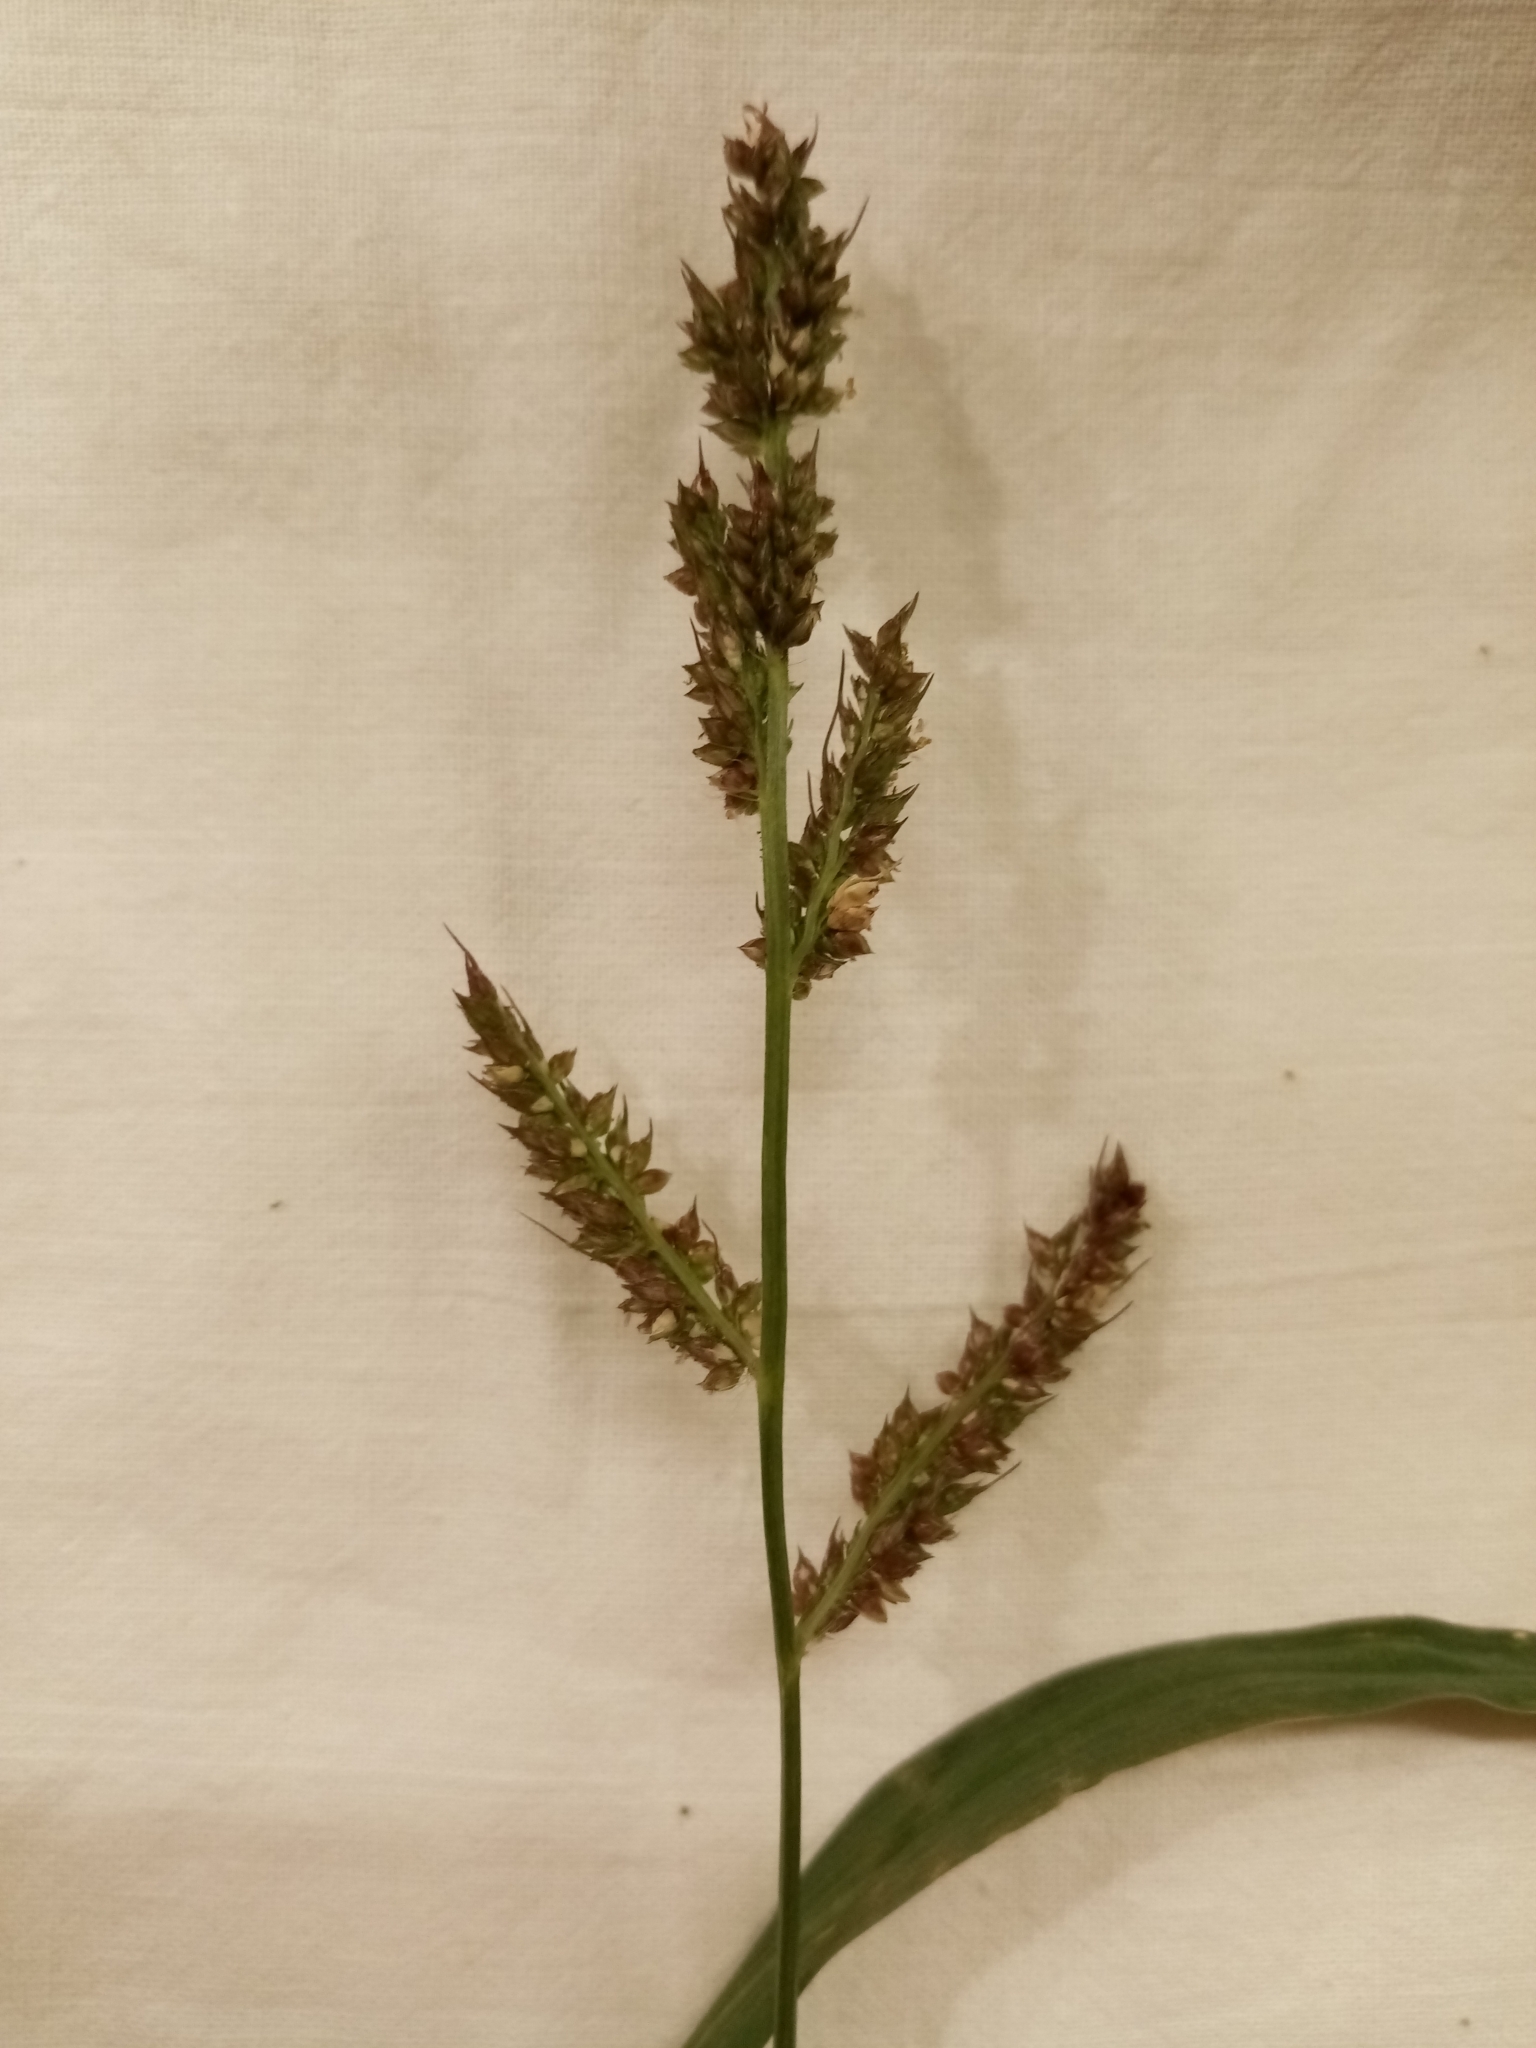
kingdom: Plantae
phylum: Tracheophyta
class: Liliopsida
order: Poales
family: Poaceae
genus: Echinochloa
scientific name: Echinochloa crus-galli
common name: Cockspur
